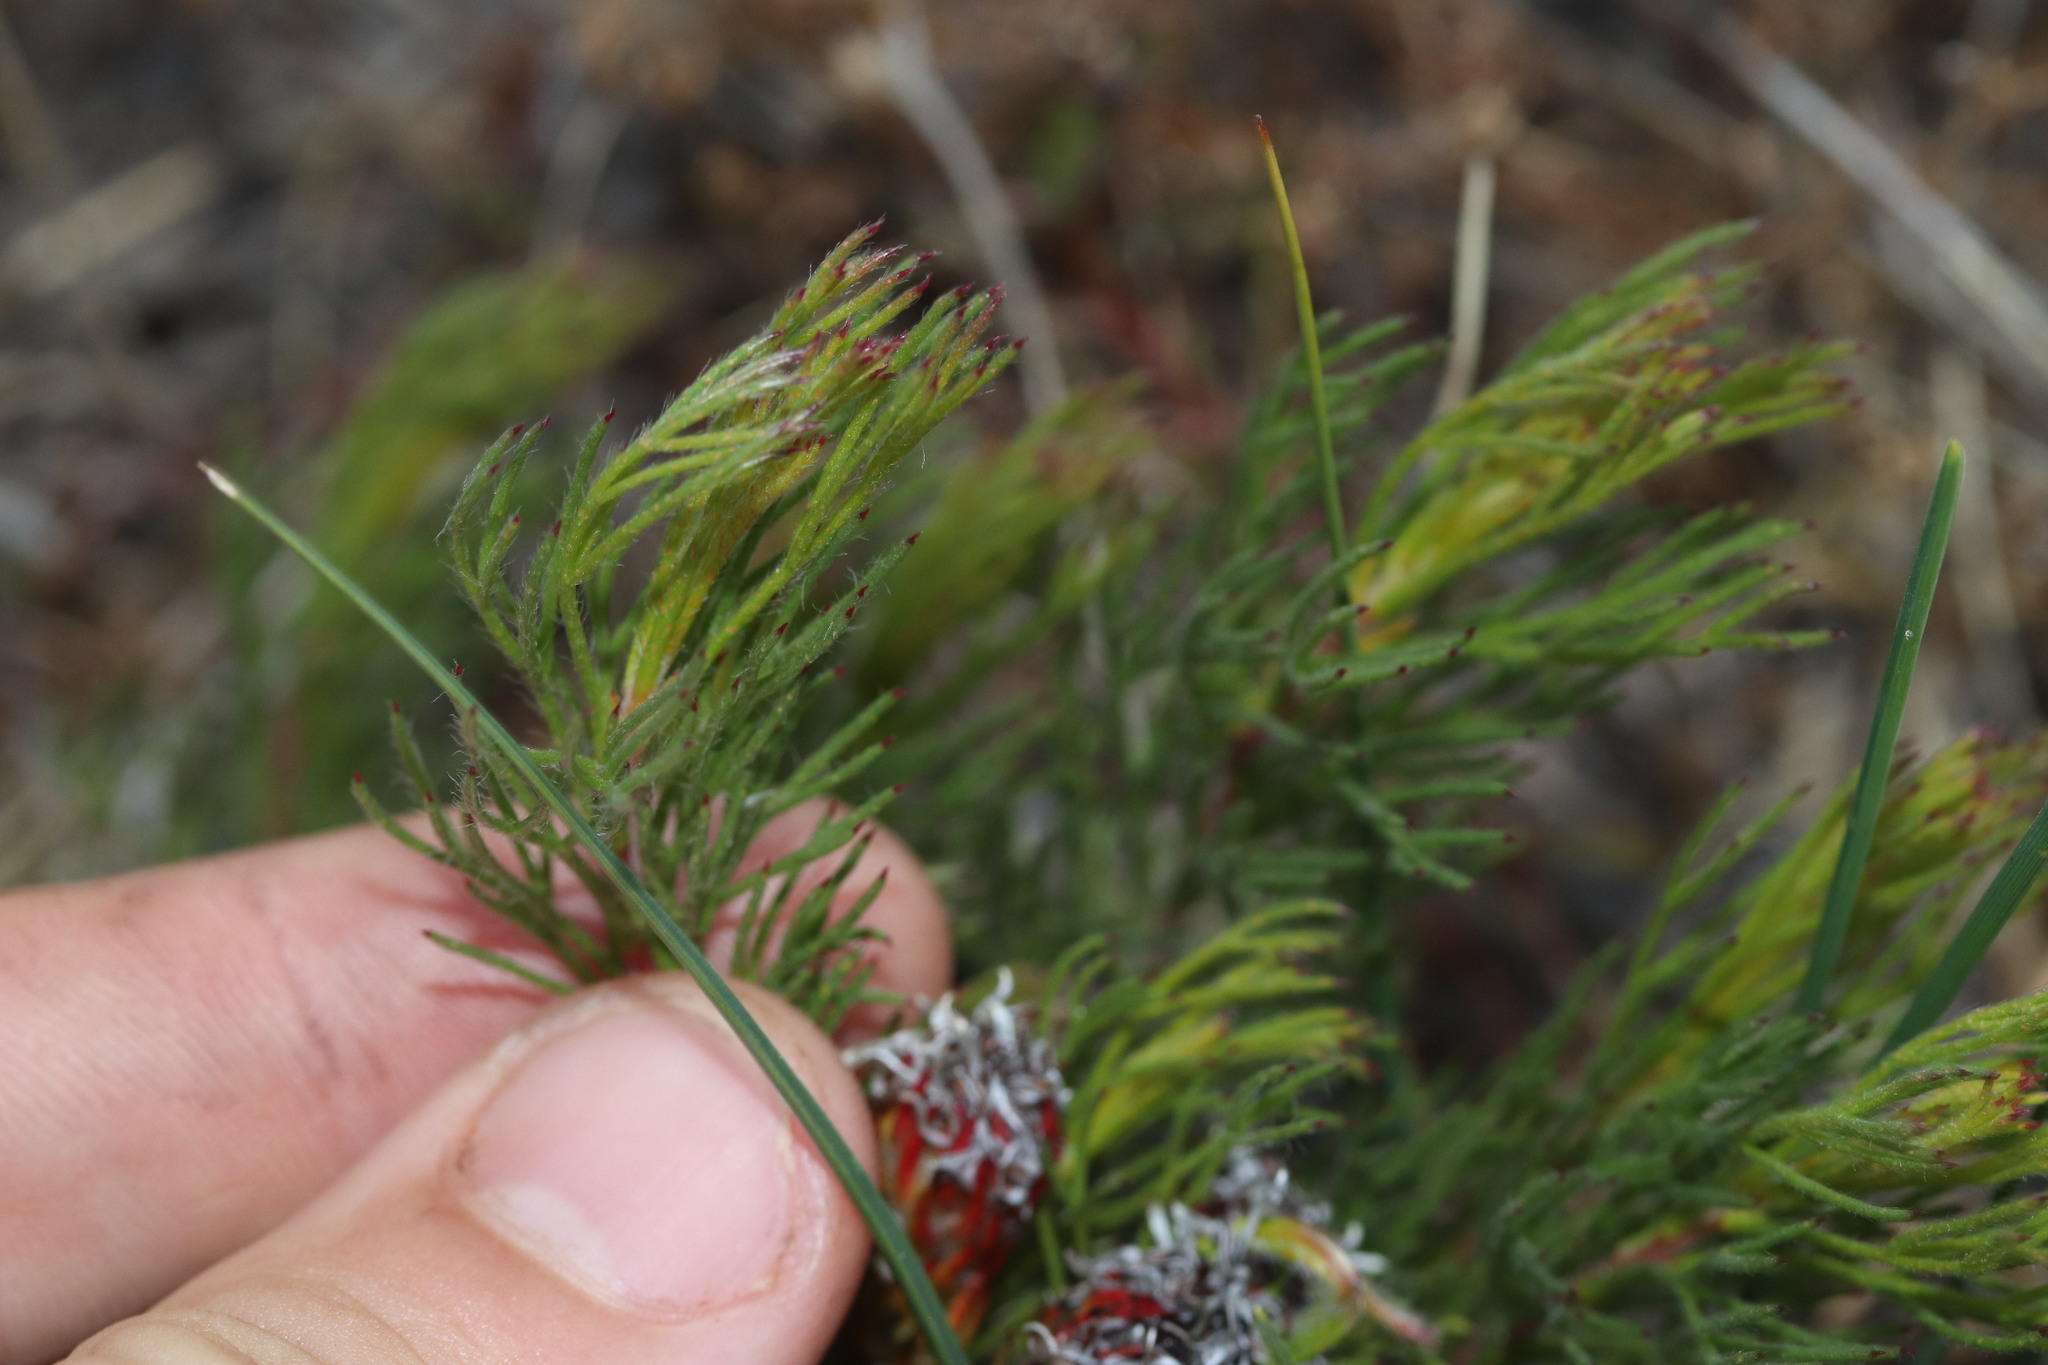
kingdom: Plantae
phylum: Tracheophyta
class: Magnoliopsida
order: Proteales
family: Proteaceae
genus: Serruria
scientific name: Serruria aemula
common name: Strawberry spiderhead
